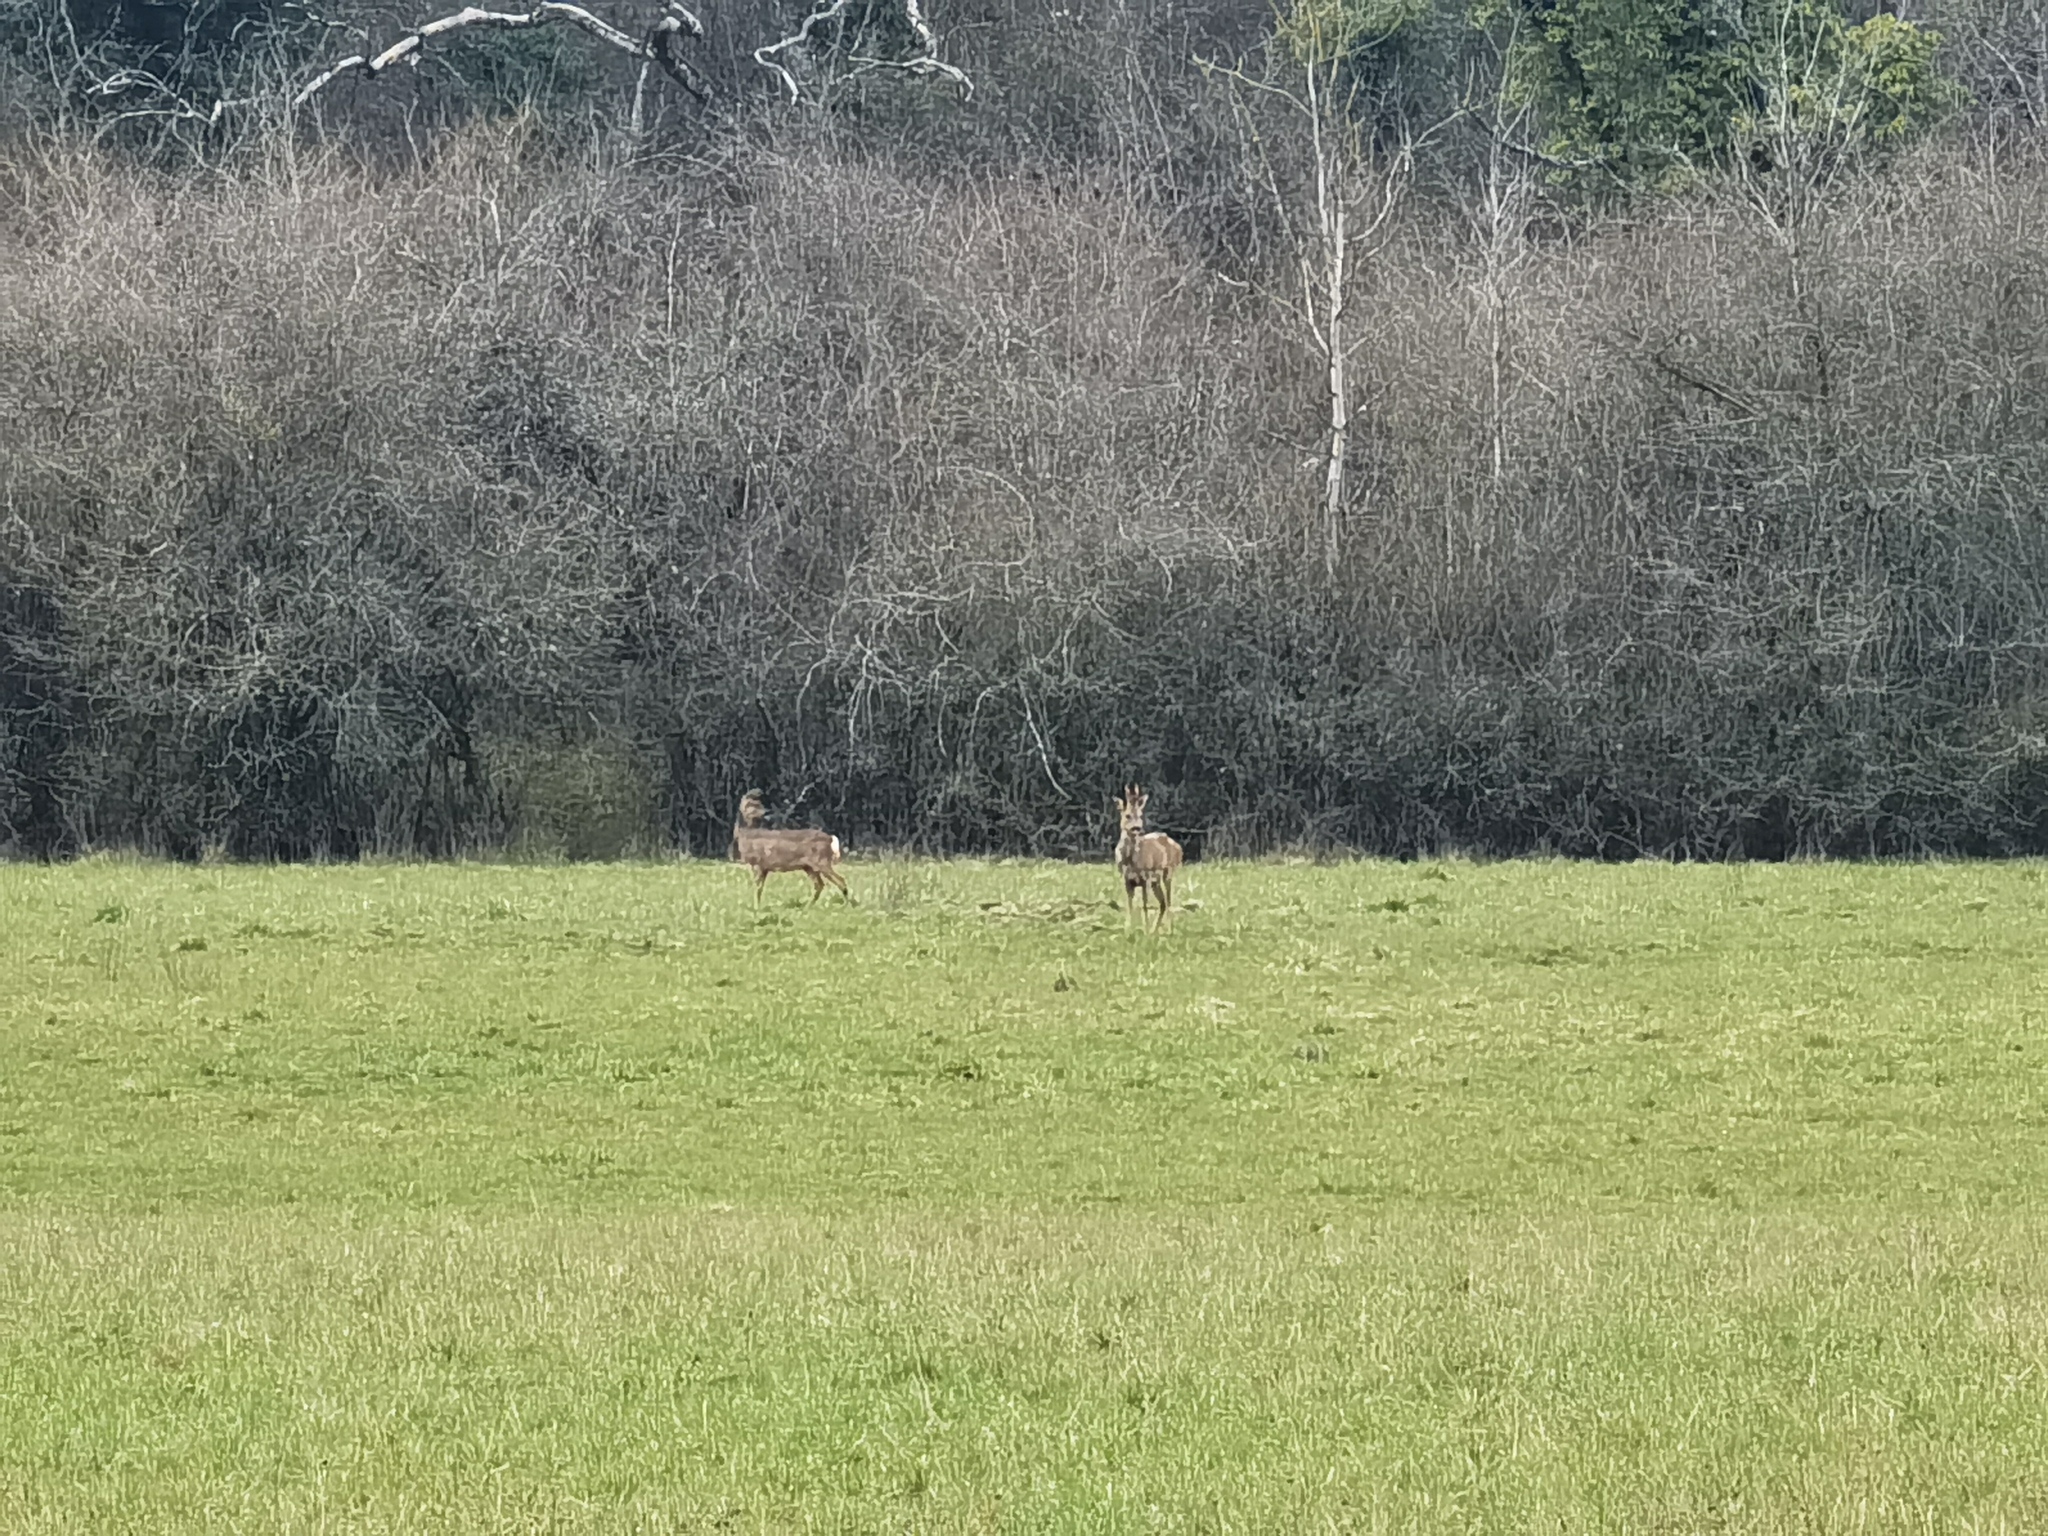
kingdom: Animalia
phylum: Chordata
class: Mammalia
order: Artiodactyla
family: Cervidae
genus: Capreolus
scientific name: Capreolus capreolus
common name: Western roe deer
